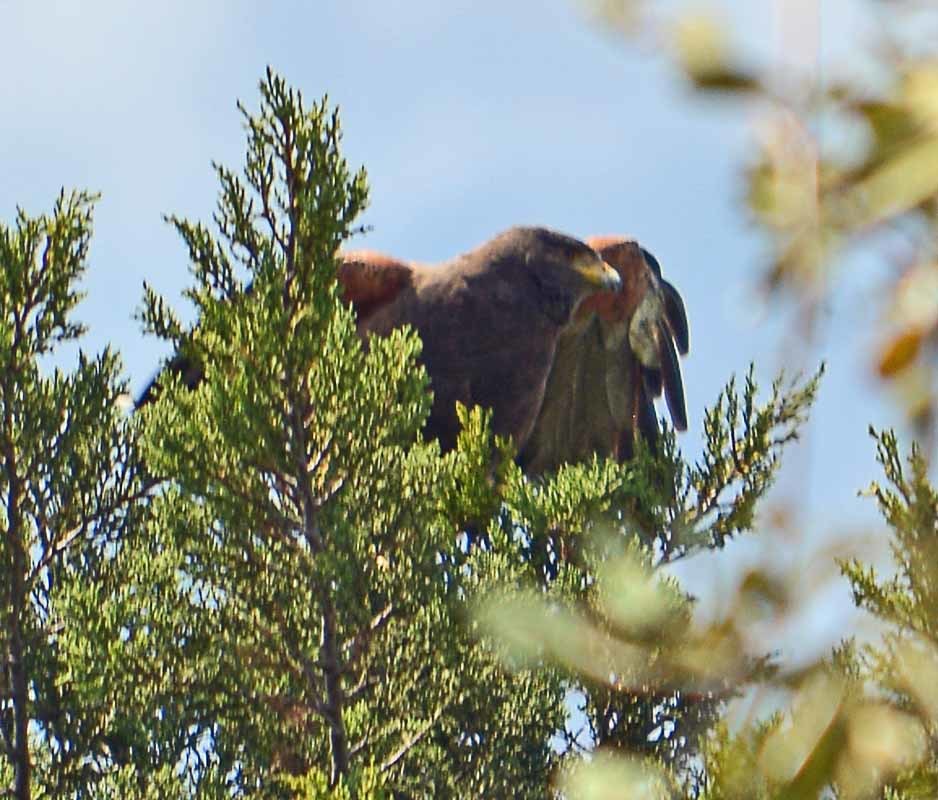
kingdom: Animalia
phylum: Chordata
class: Aves
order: Accipitriformes
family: Accipitridae
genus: Parabuteo
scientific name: Parabuteo unicinctus
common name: Harris's hawk
